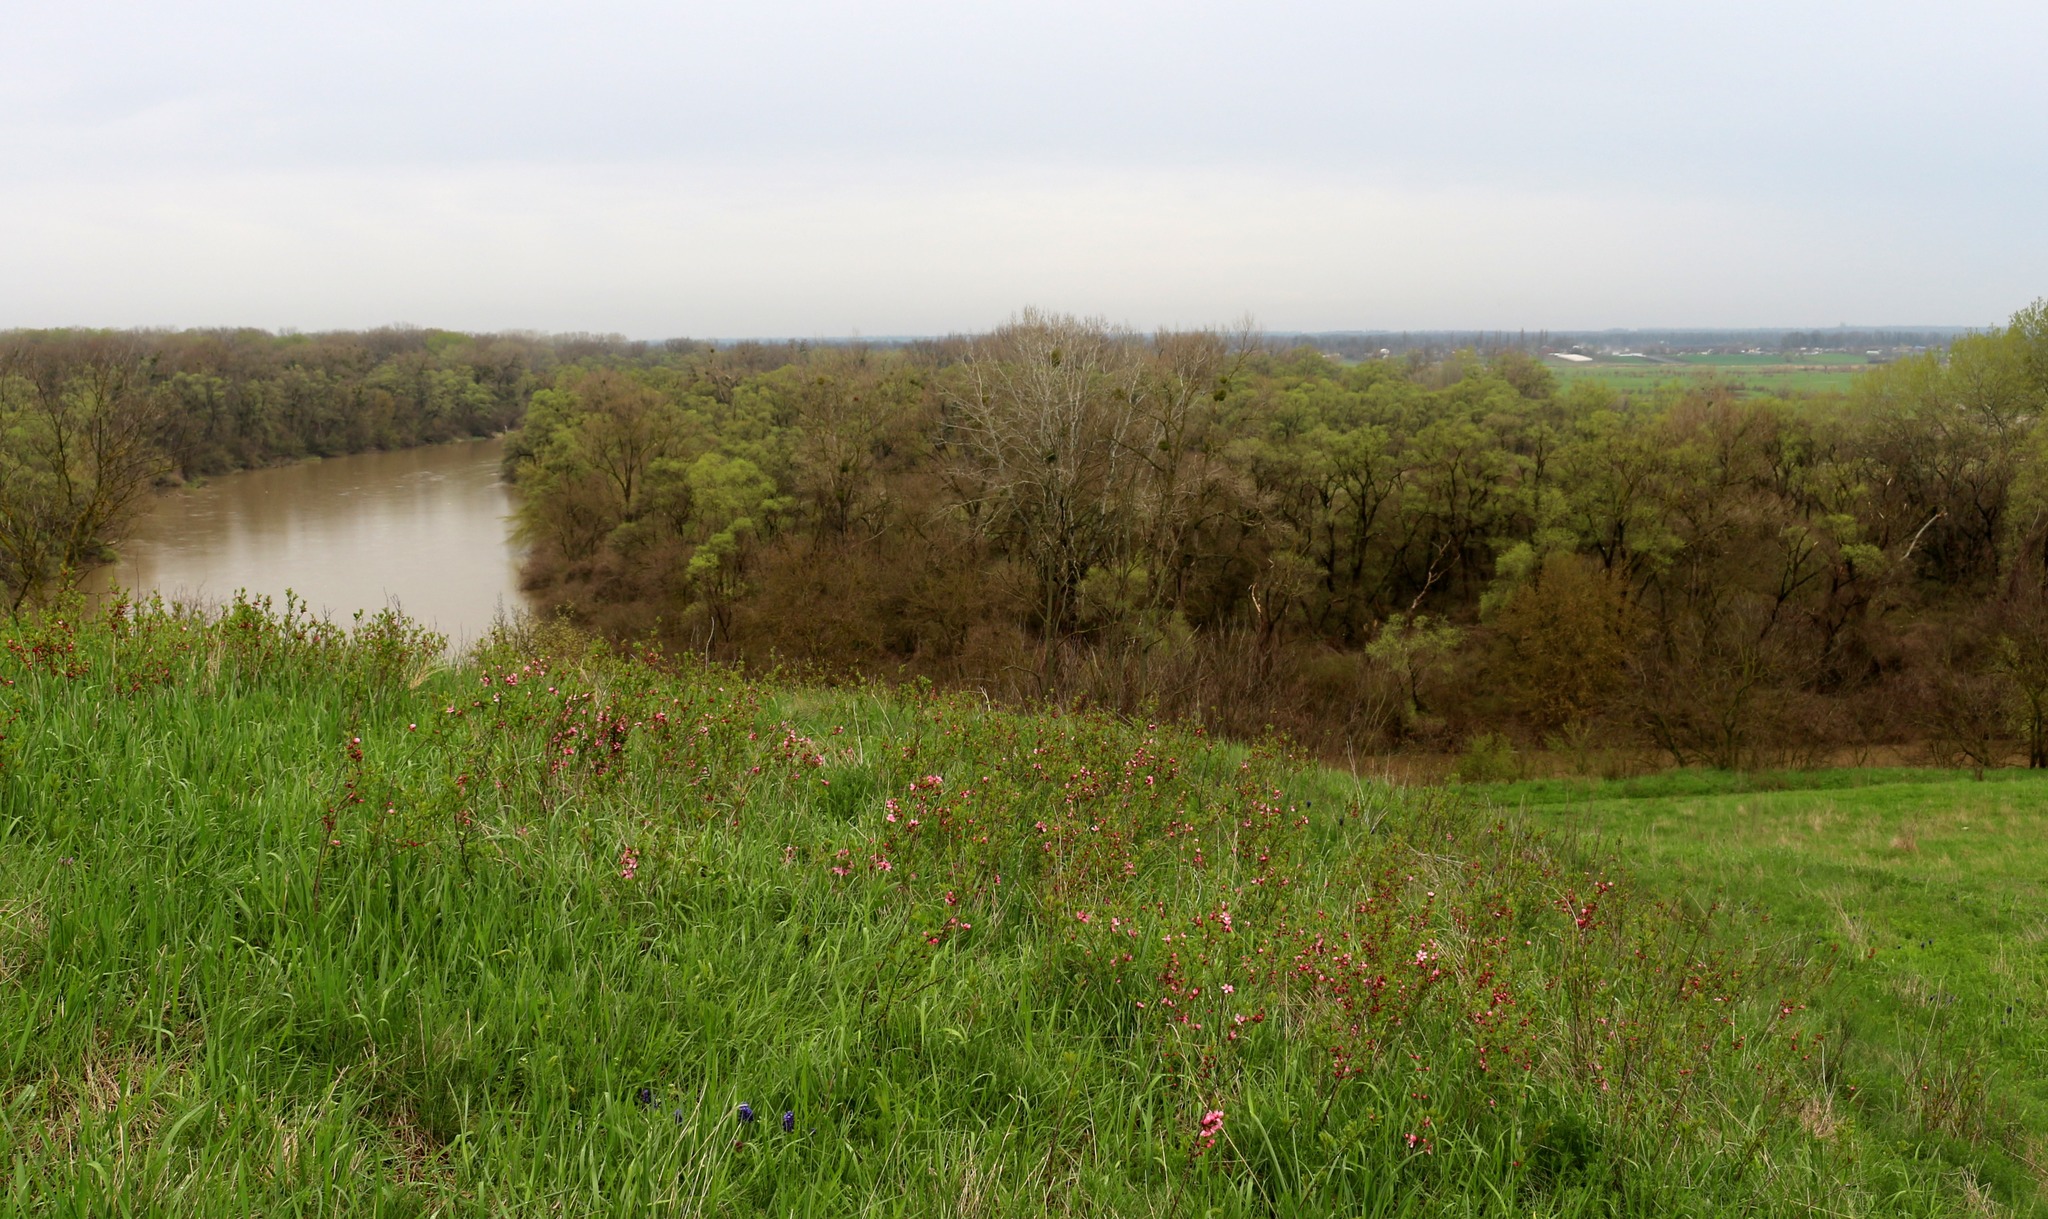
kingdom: Plantae
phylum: Tracheophyta
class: Magnoliopsida
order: Rosales
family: Rosaceae
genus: Prunus
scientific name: Prunus tenella
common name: Dwarf russian almond
